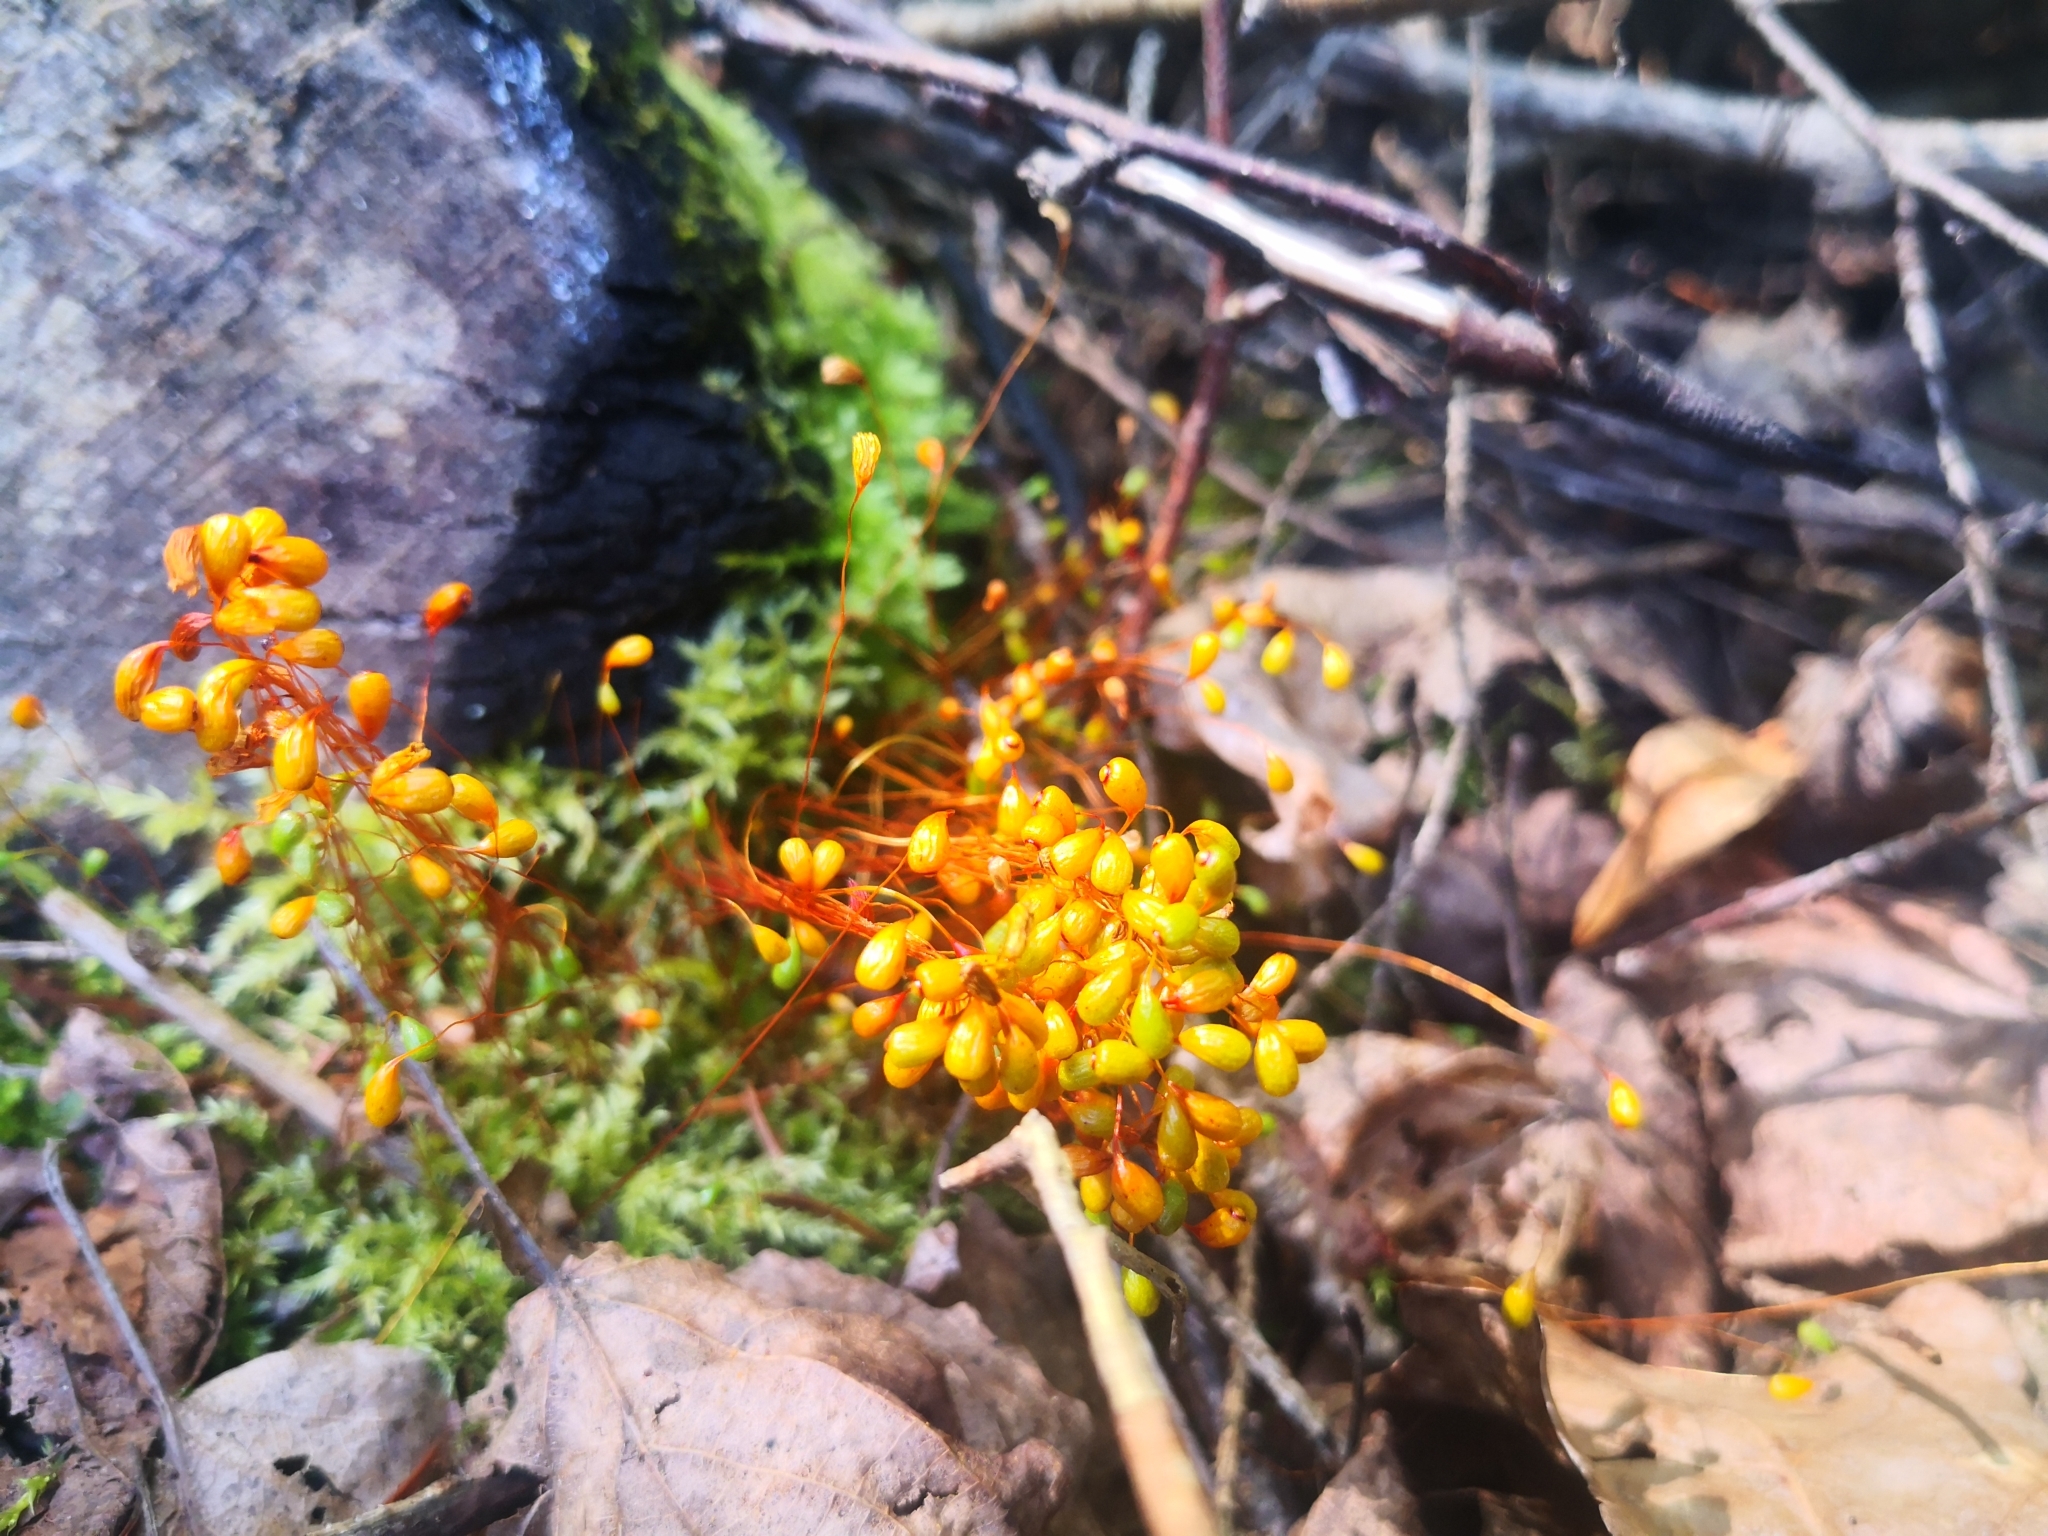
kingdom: Plantae
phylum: Bryophyta
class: Bryopsida
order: Funariales
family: Funariaceae
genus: Funaria
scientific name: Funaria hygrometrica
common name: Common cord moss
